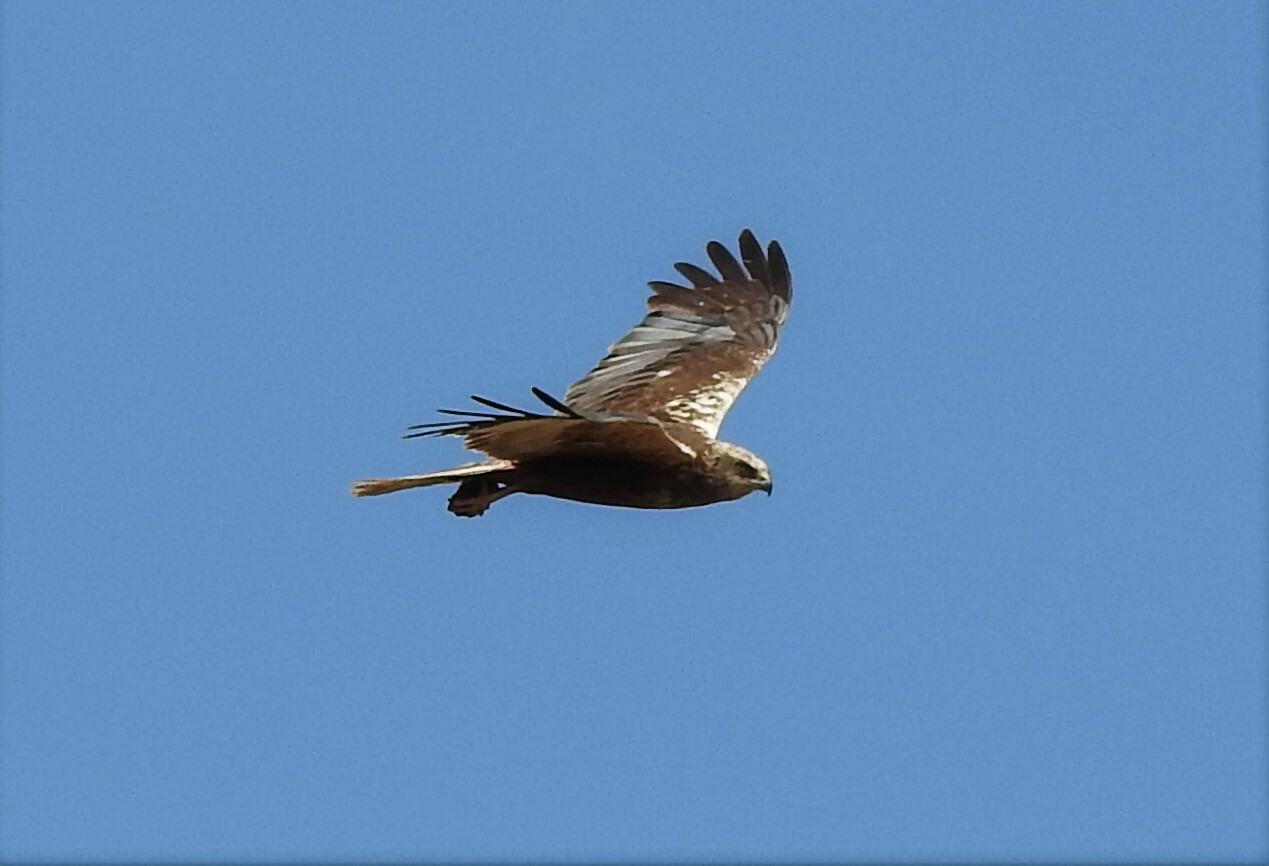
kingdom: Animalia
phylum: Chordata
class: Aves
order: Accipitriformes
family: Accipitridae
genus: Circus
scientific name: Circus aeruginosus
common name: Western marsh harrier
